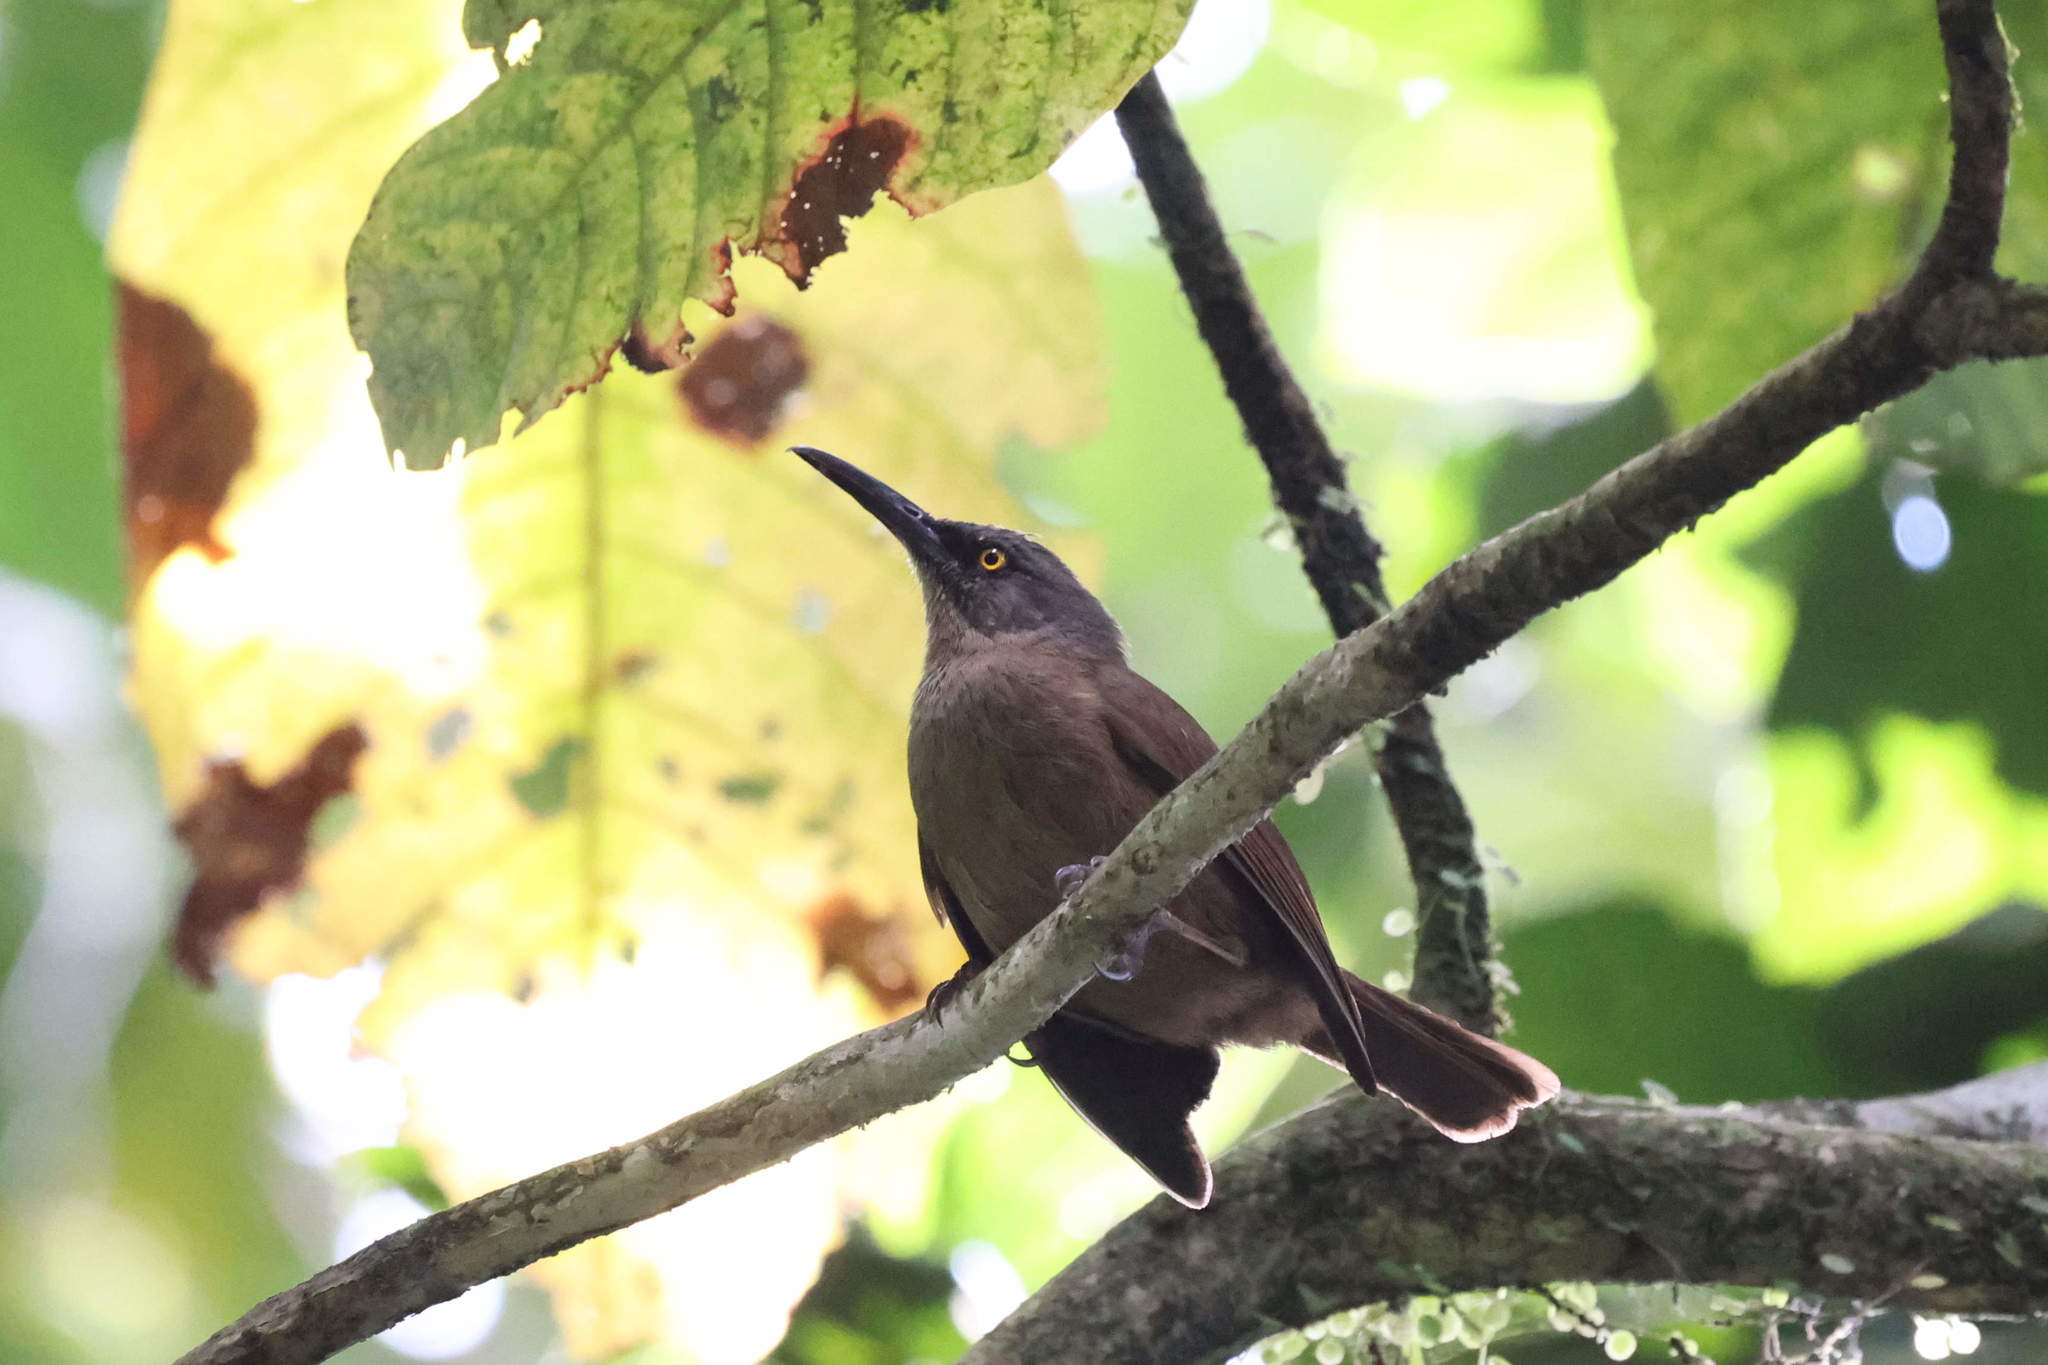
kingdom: Animalia
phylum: Chordata
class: Aves
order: Passeriformes
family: Mimidae
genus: Cinclocerthia
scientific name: Cinclocerthia ruficauda
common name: Brown trembler
